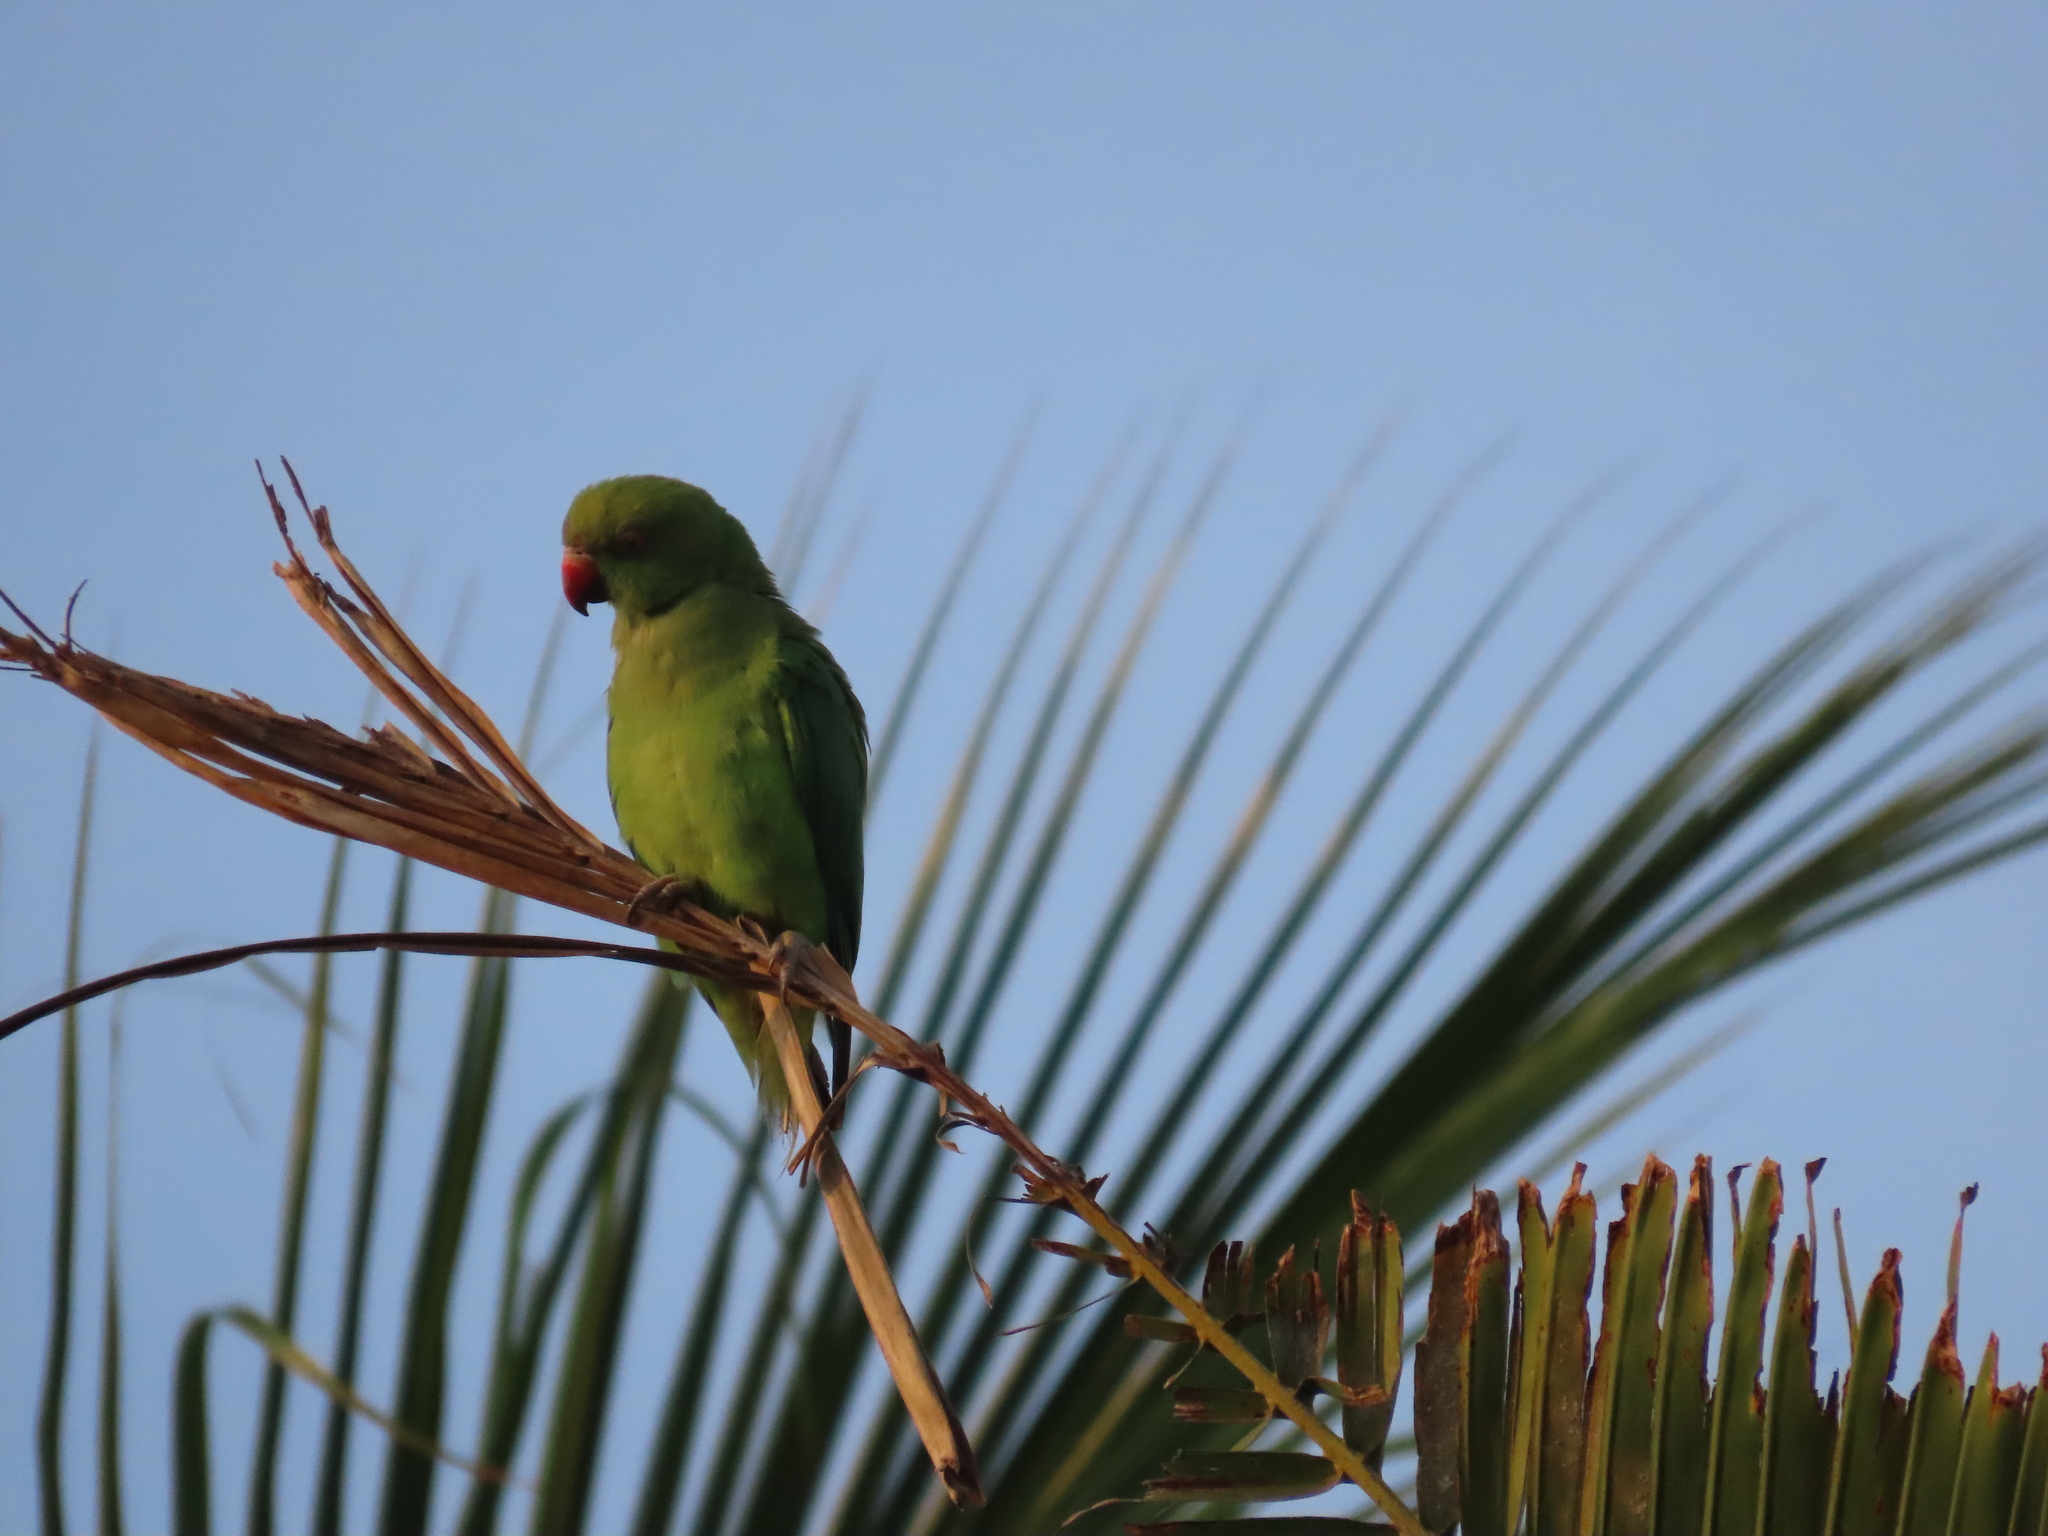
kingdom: Animalia
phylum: Chordata
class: Aves
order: Psittaciformes
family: Psittacidae
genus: Psittacula
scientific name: Psittacula krameri
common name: Rose-ringed parakeet
